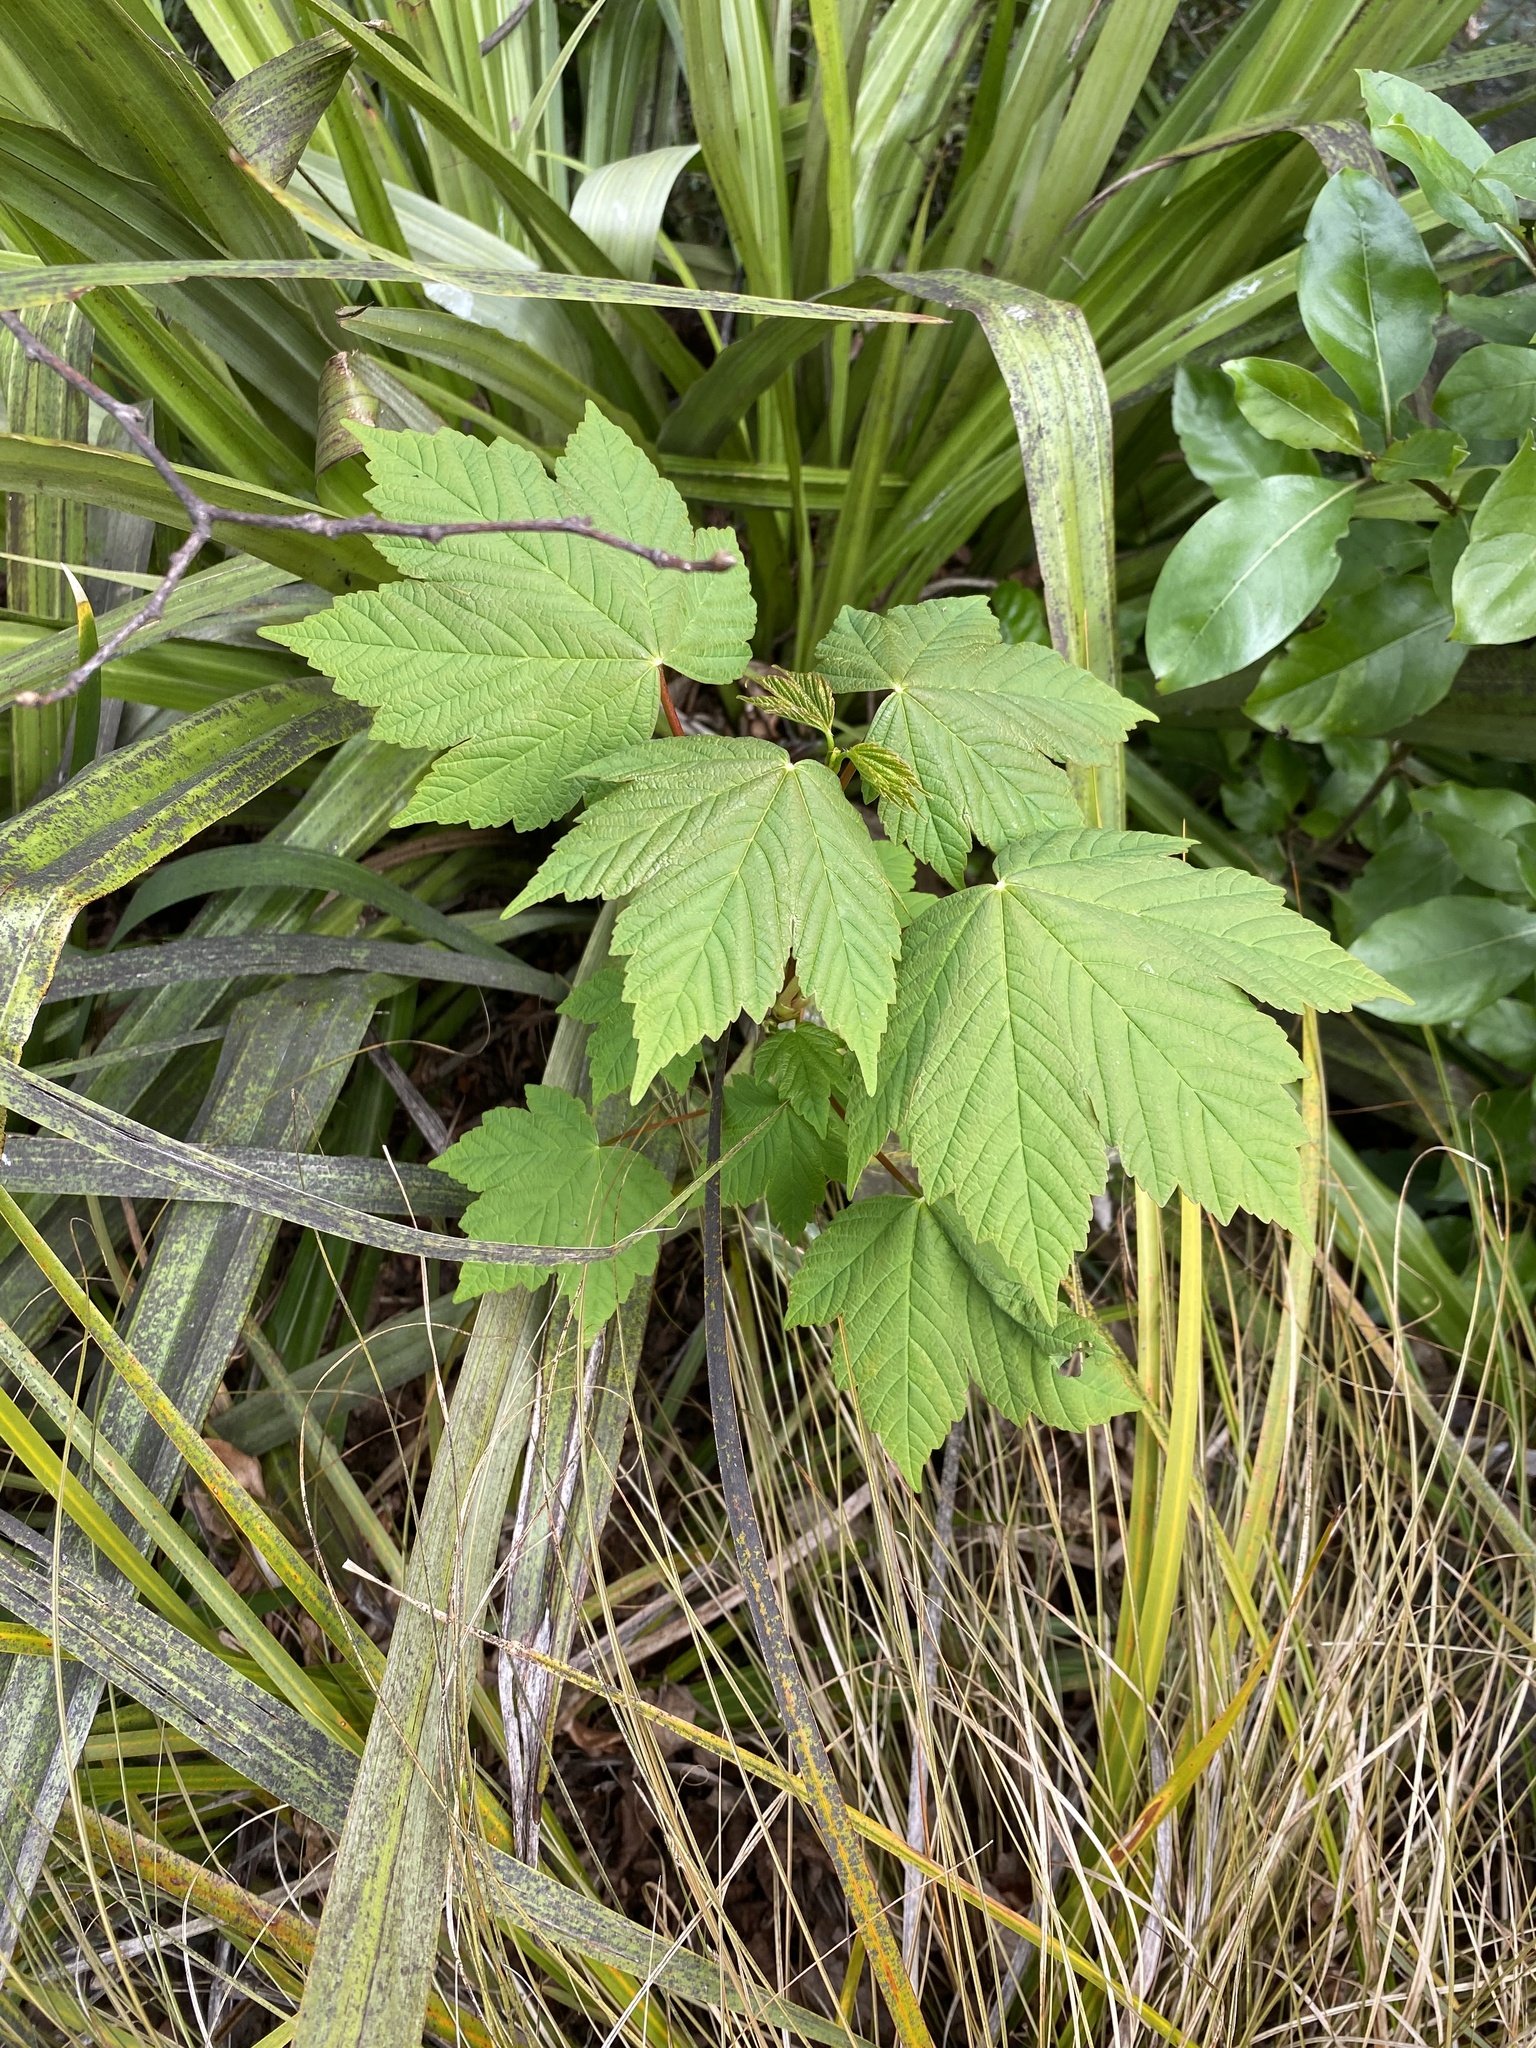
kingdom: Plantae
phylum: Tracheophyta
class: Magnoliopsida
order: Sapindales
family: Sapindaceae
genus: Acer
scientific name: Acer pseudoplatanus
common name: Sycamore
